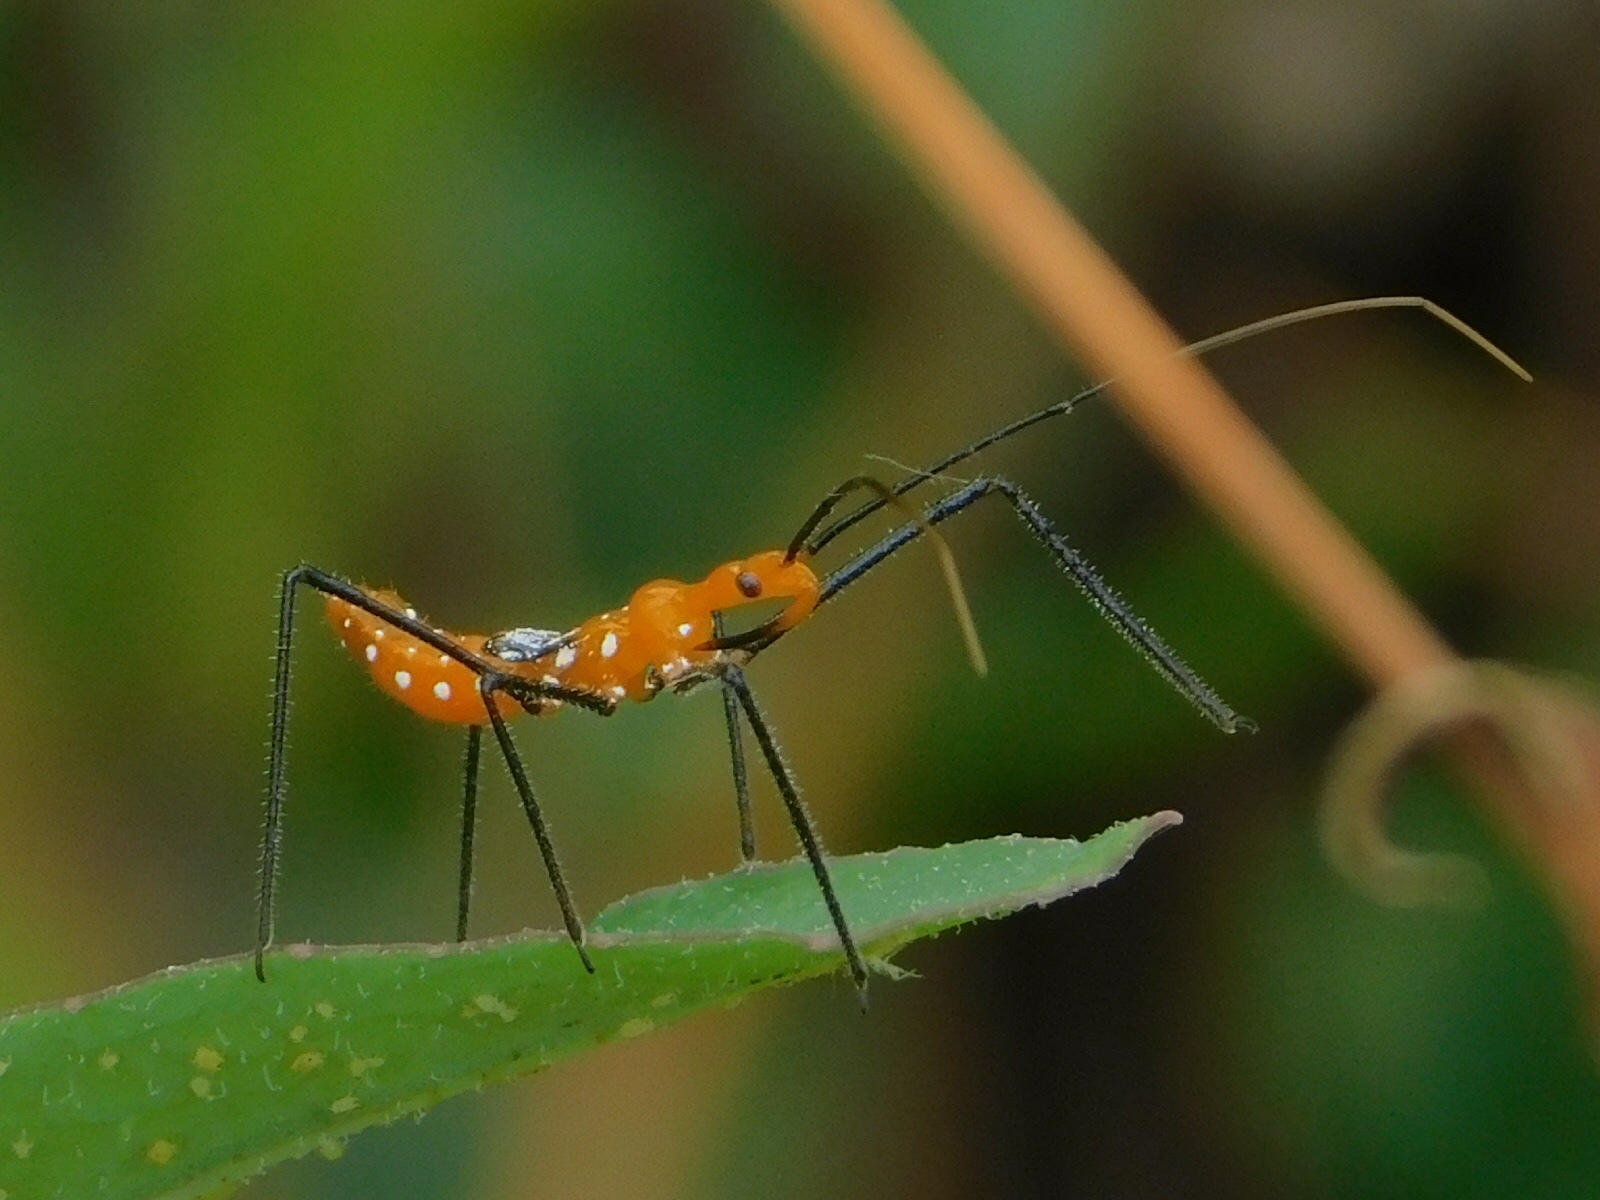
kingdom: Animalia
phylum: Arthropoda
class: Insecta
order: Hemiptera
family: Reduviidae
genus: Zelus
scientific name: Zelus longipes
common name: Milkweed assassin bug
